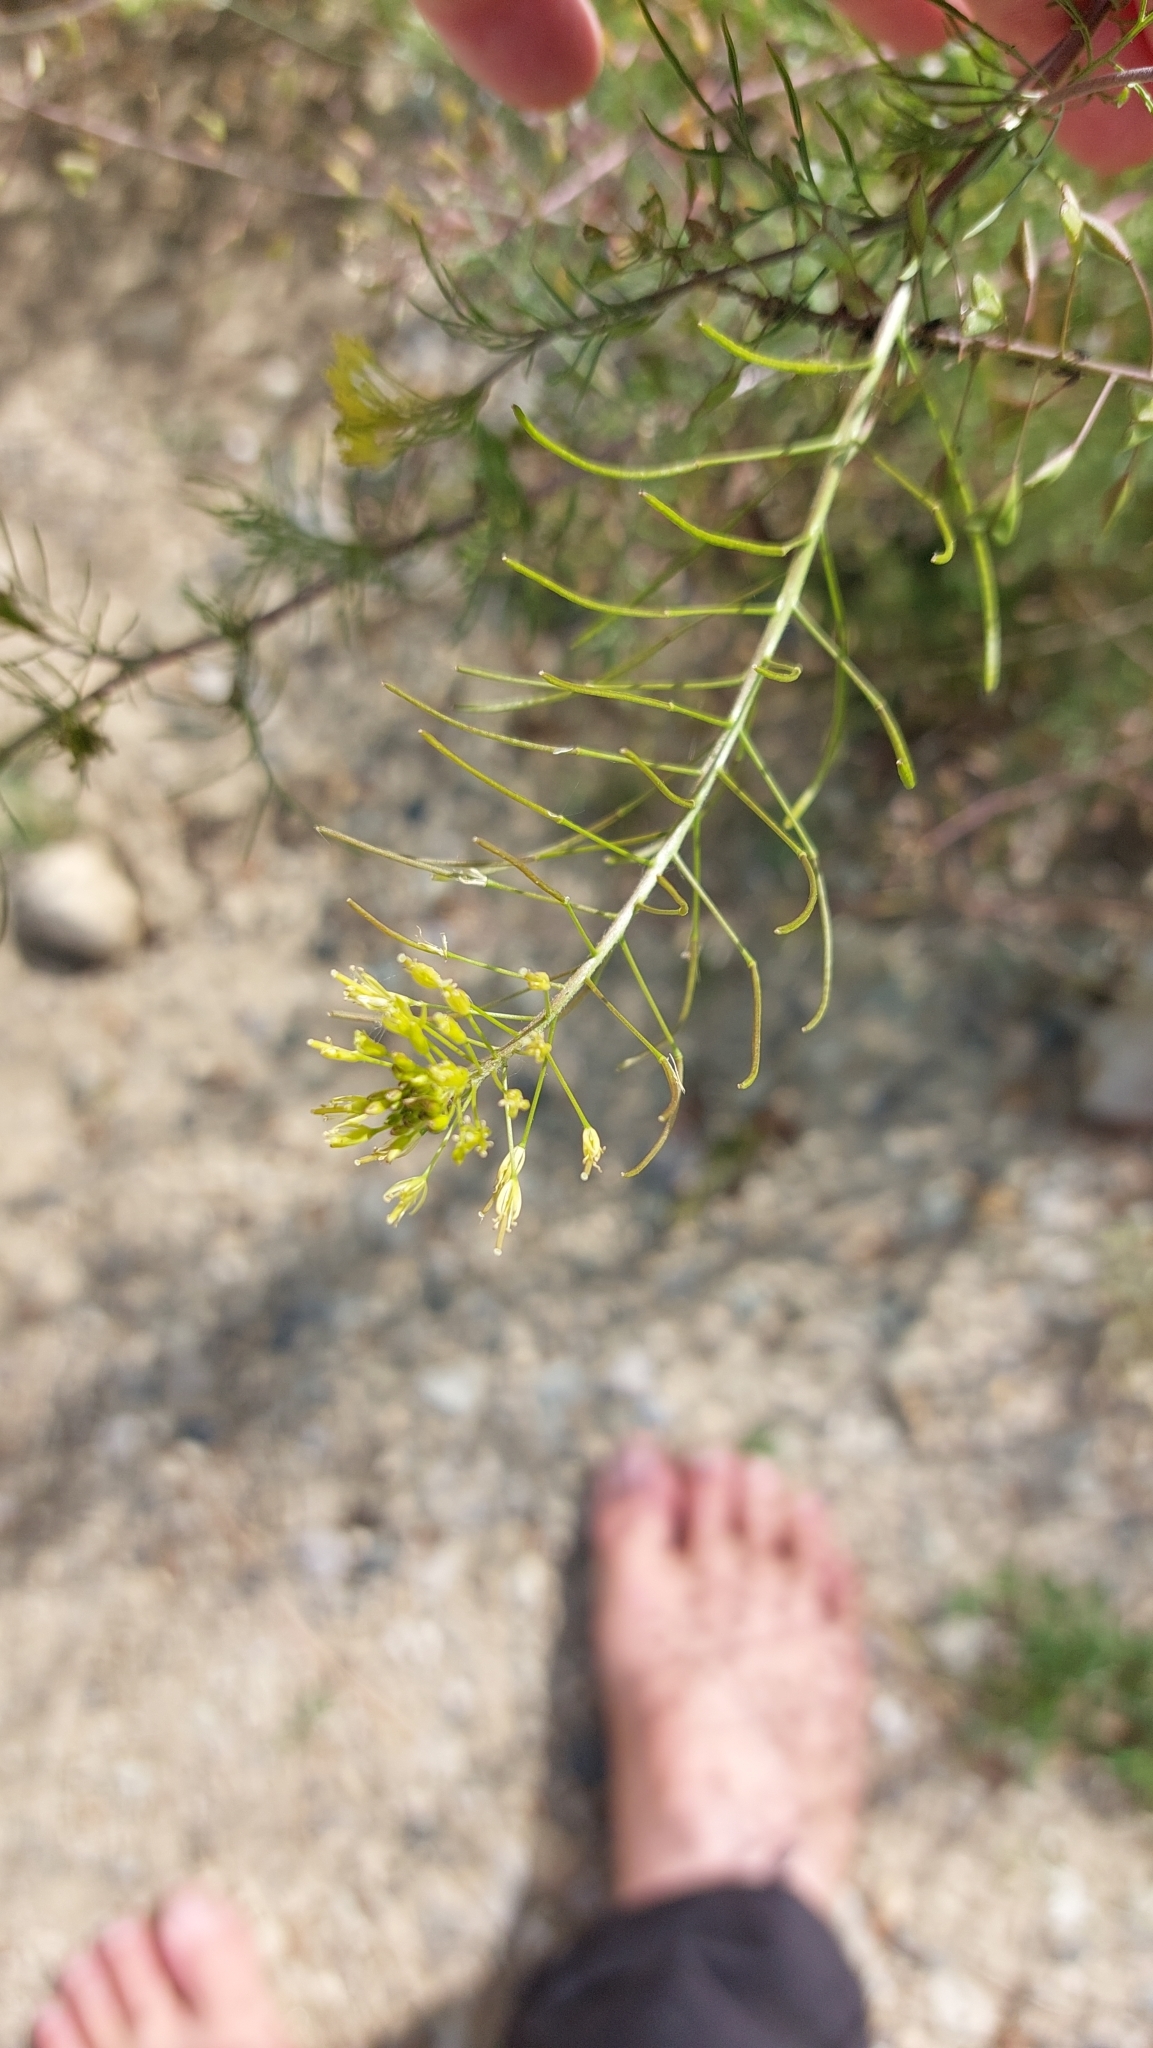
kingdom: Plantae
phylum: Tracheophyta
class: Magnoliopsida
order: Brassicales
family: Brassicaceae
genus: Descurainia
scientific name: Descurainia sophia
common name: Flixweed
